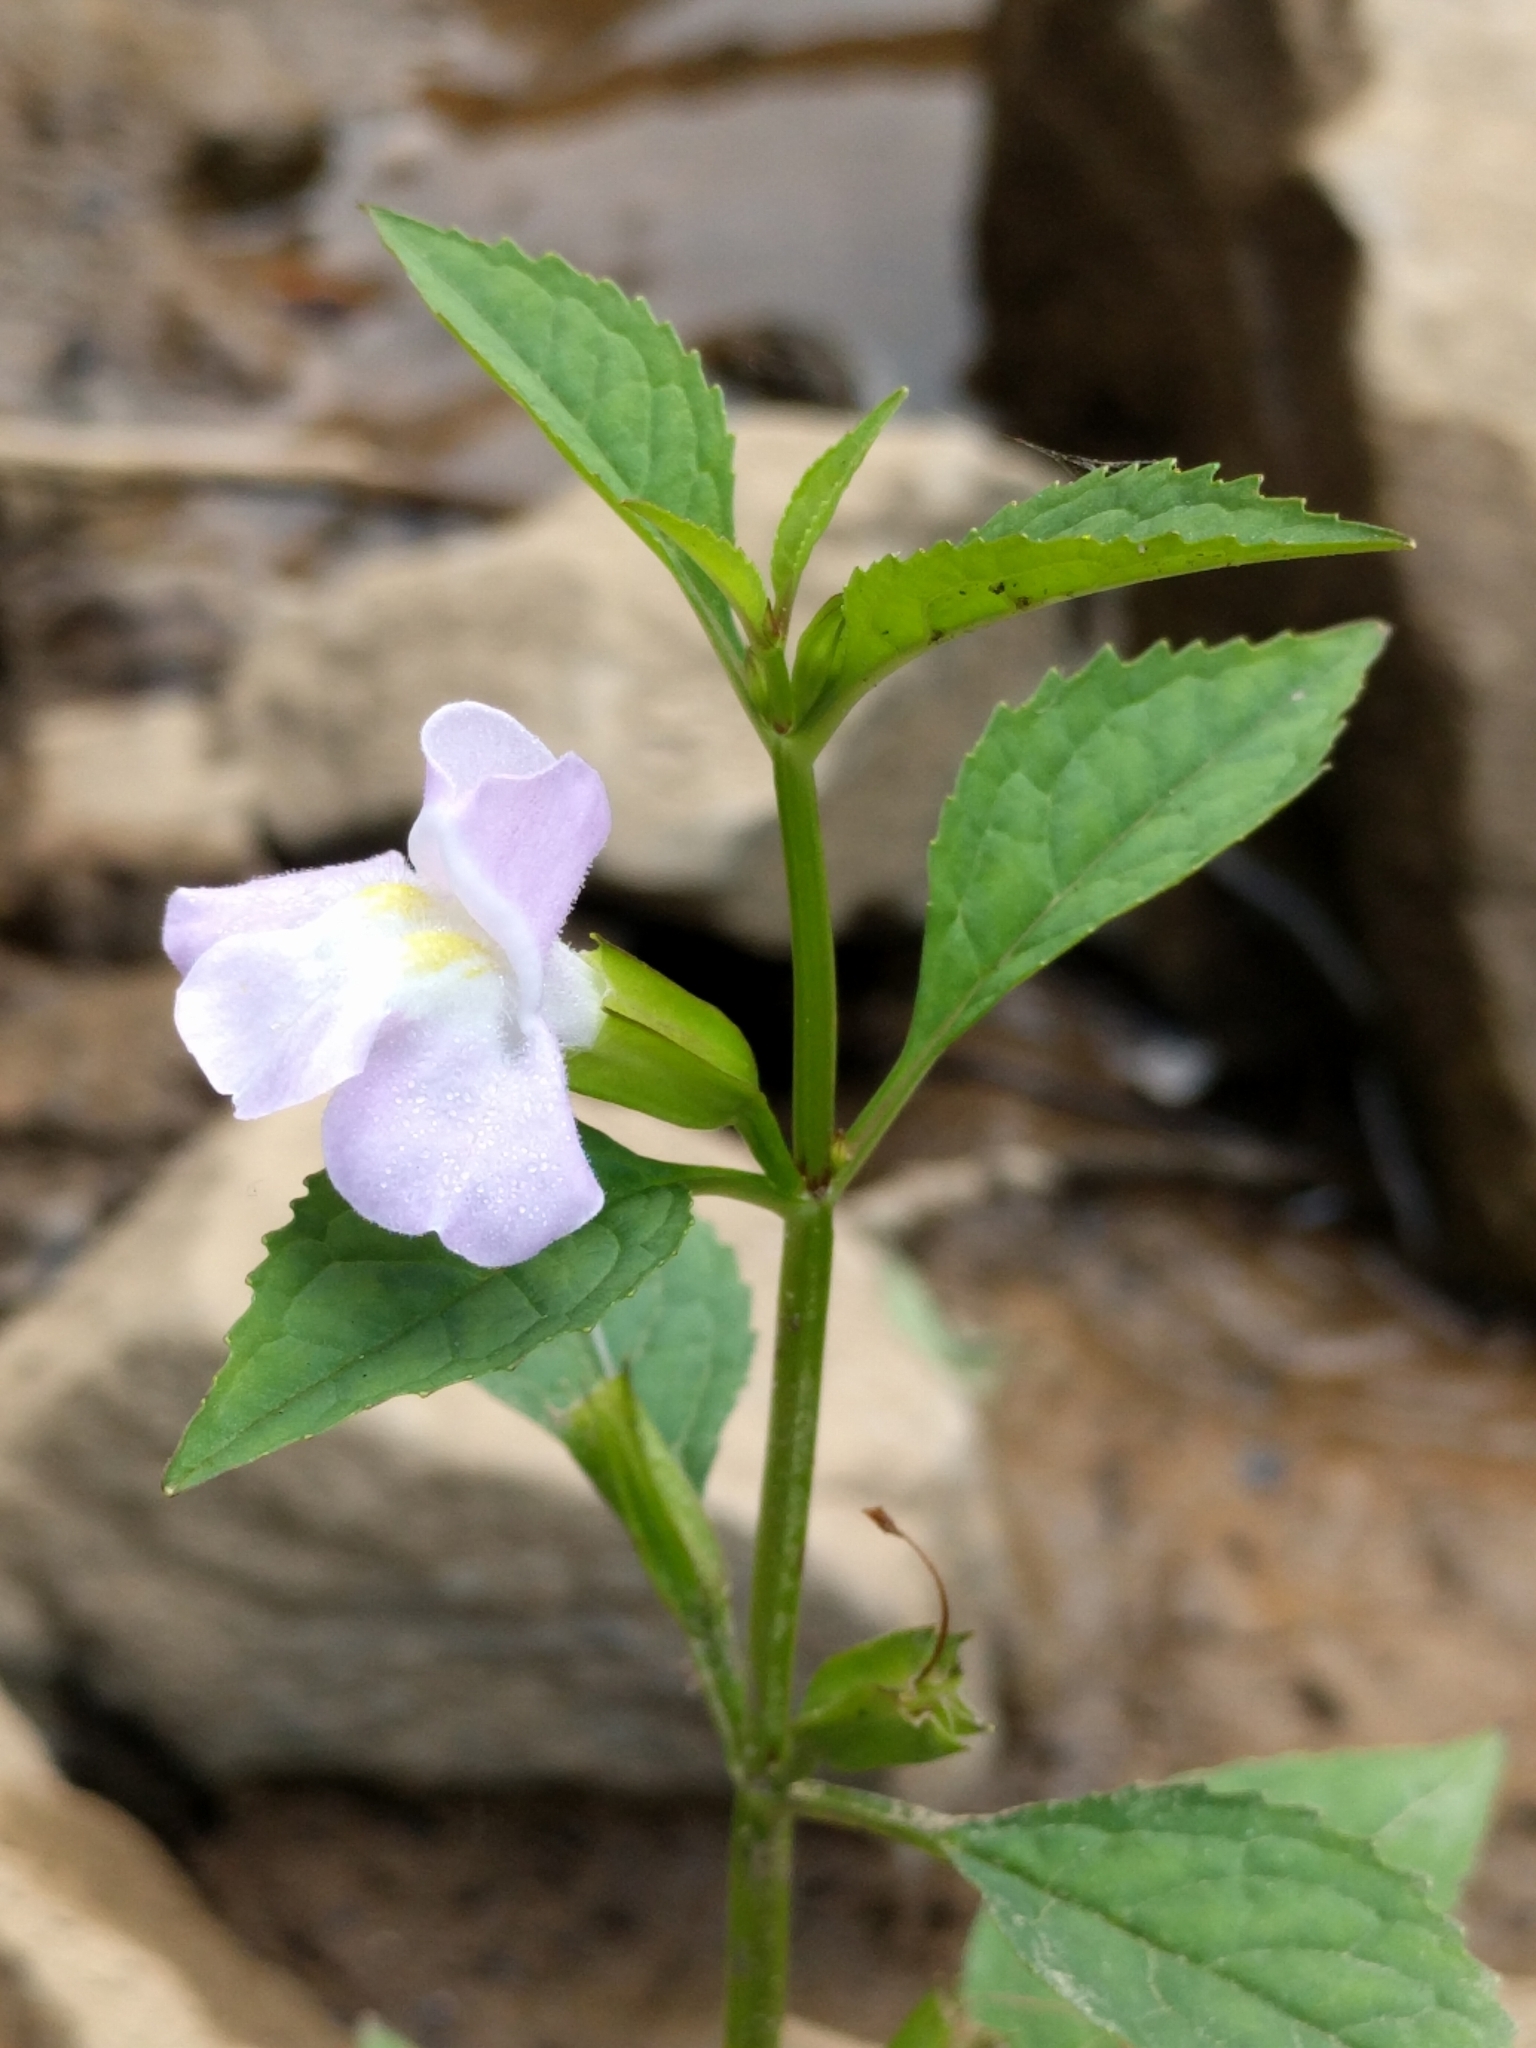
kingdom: Plantae
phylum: Tracheophyta
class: Magnoliopsida
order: Lamiales
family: Phrymaceae
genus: Mimulus
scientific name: Mimulus alatus
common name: Sharp-wing monkey-flower
